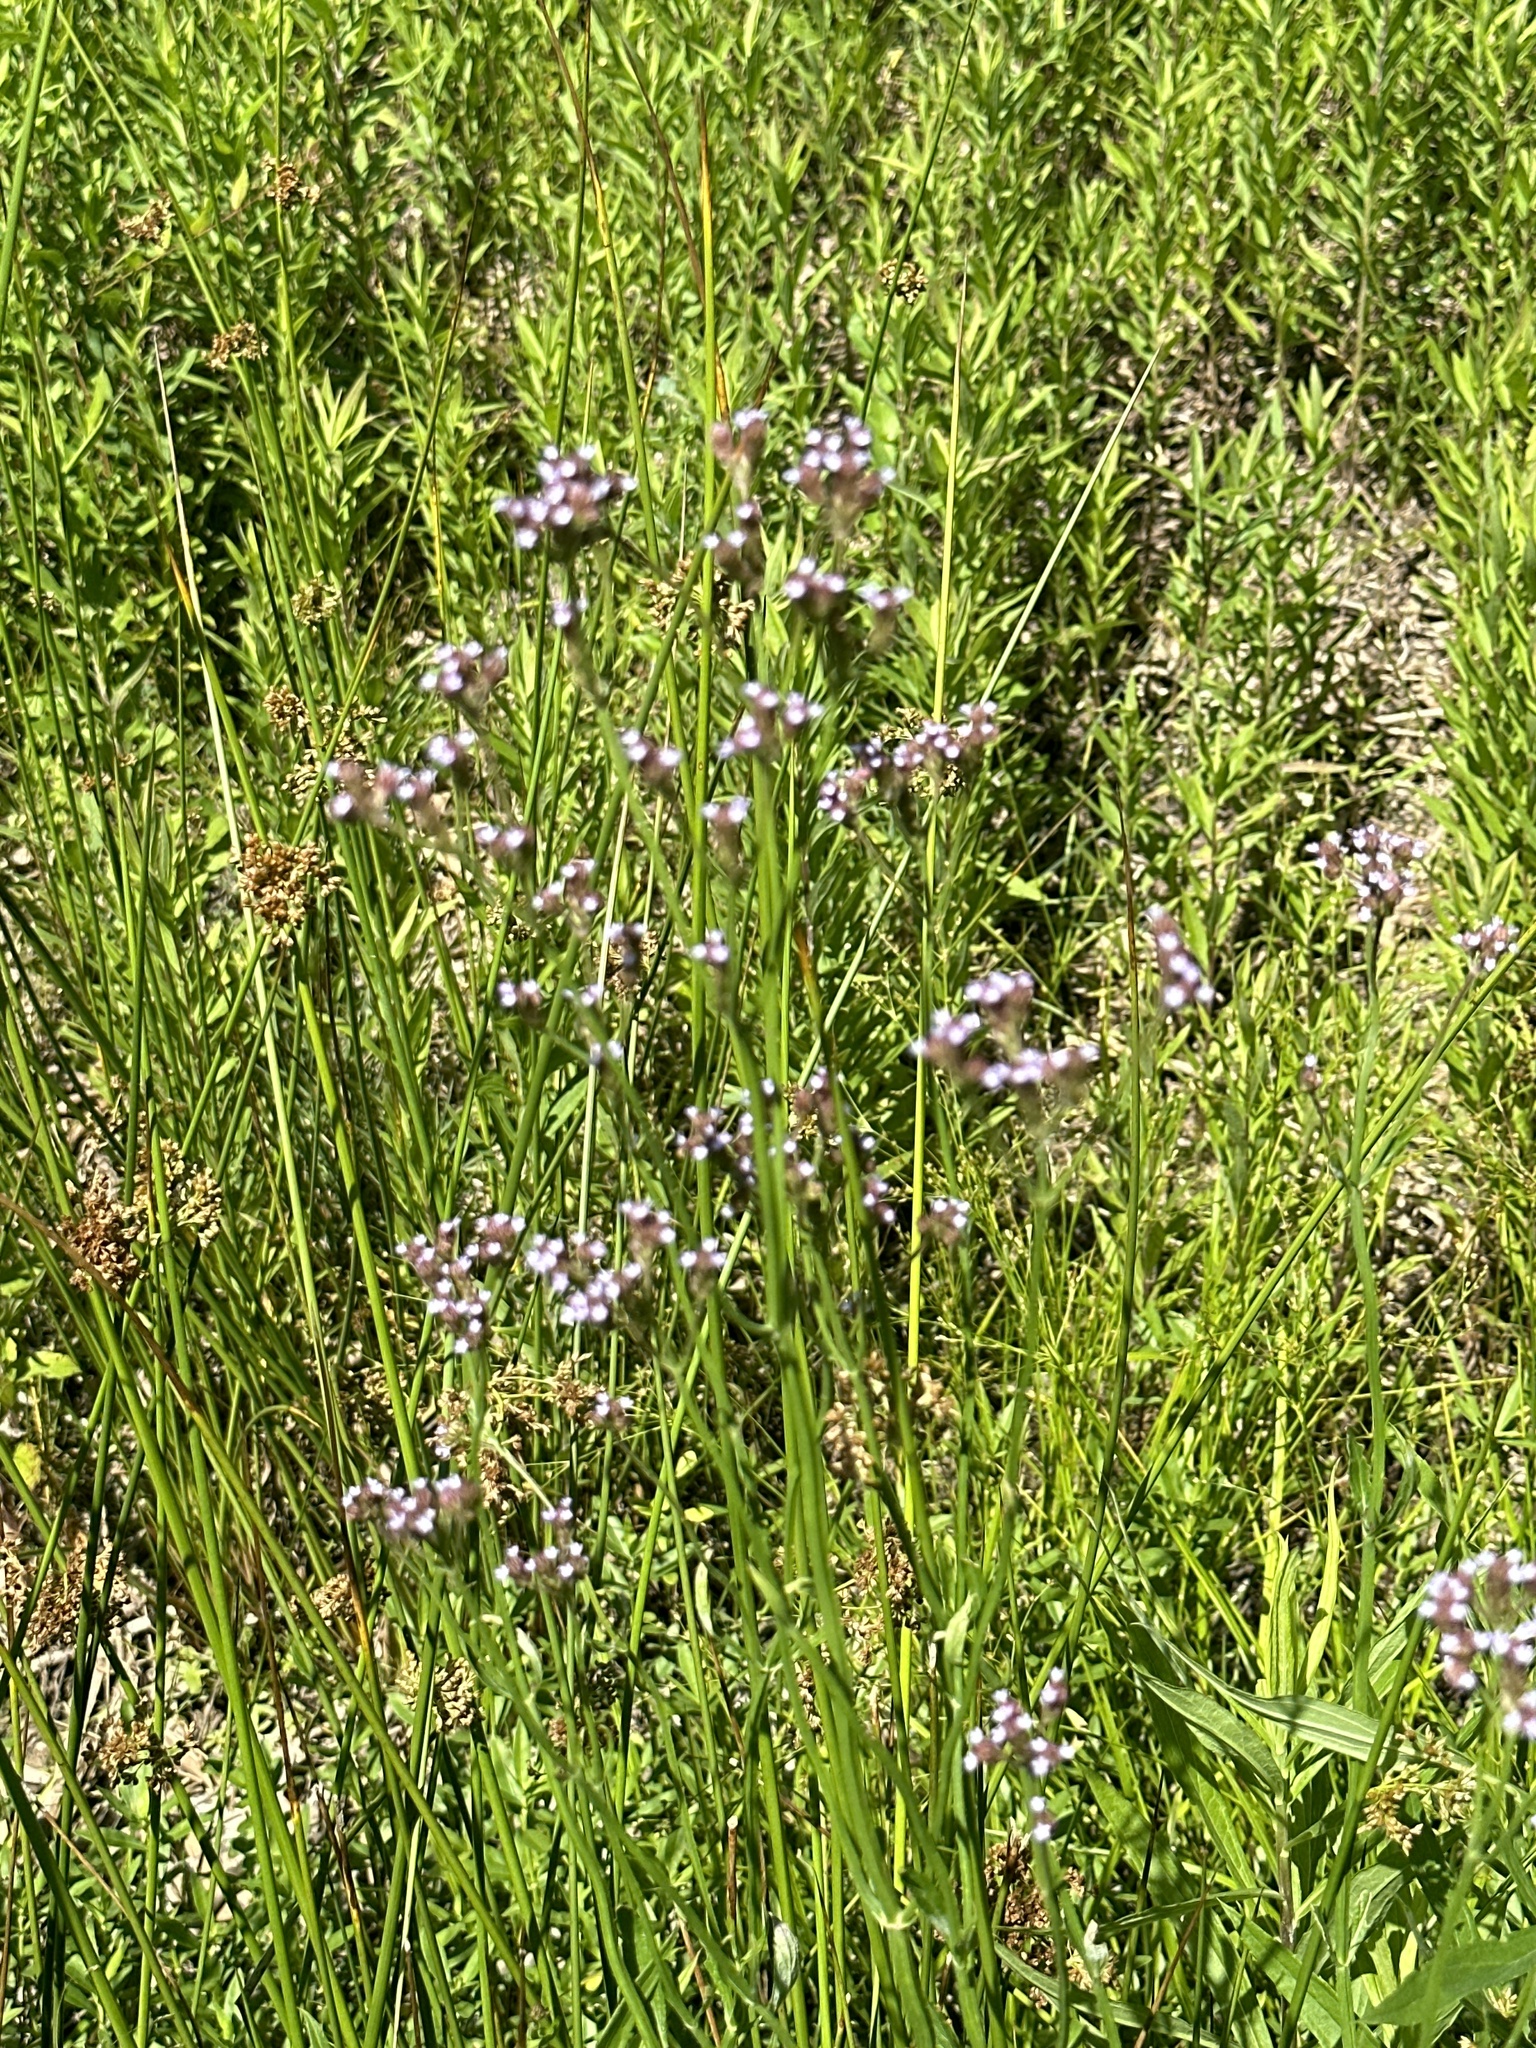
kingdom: Plantae
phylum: Tracheophyta
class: Magnoliopsida
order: Lamiales
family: Verbenaceae
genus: Verbena
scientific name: Verbena brasiliensis
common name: Brazilian vervain
